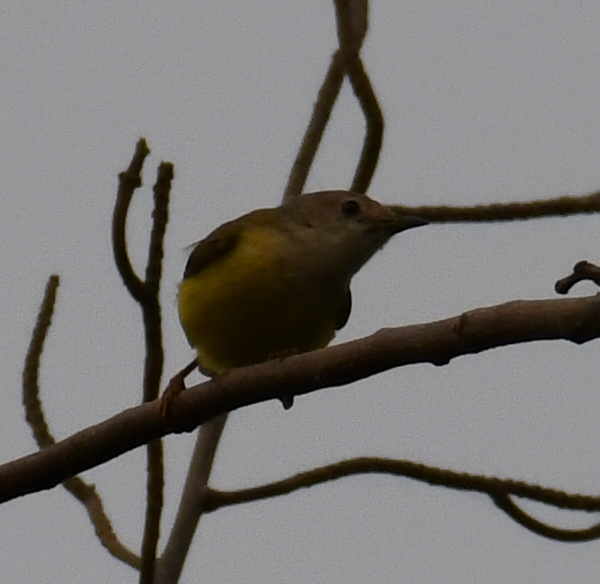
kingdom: Animalia
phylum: Chordata
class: Aves
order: Passeriformes
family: Cisticolidae
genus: Eremomela
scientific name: Eremomela pusilla
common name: Senegal eremomela
